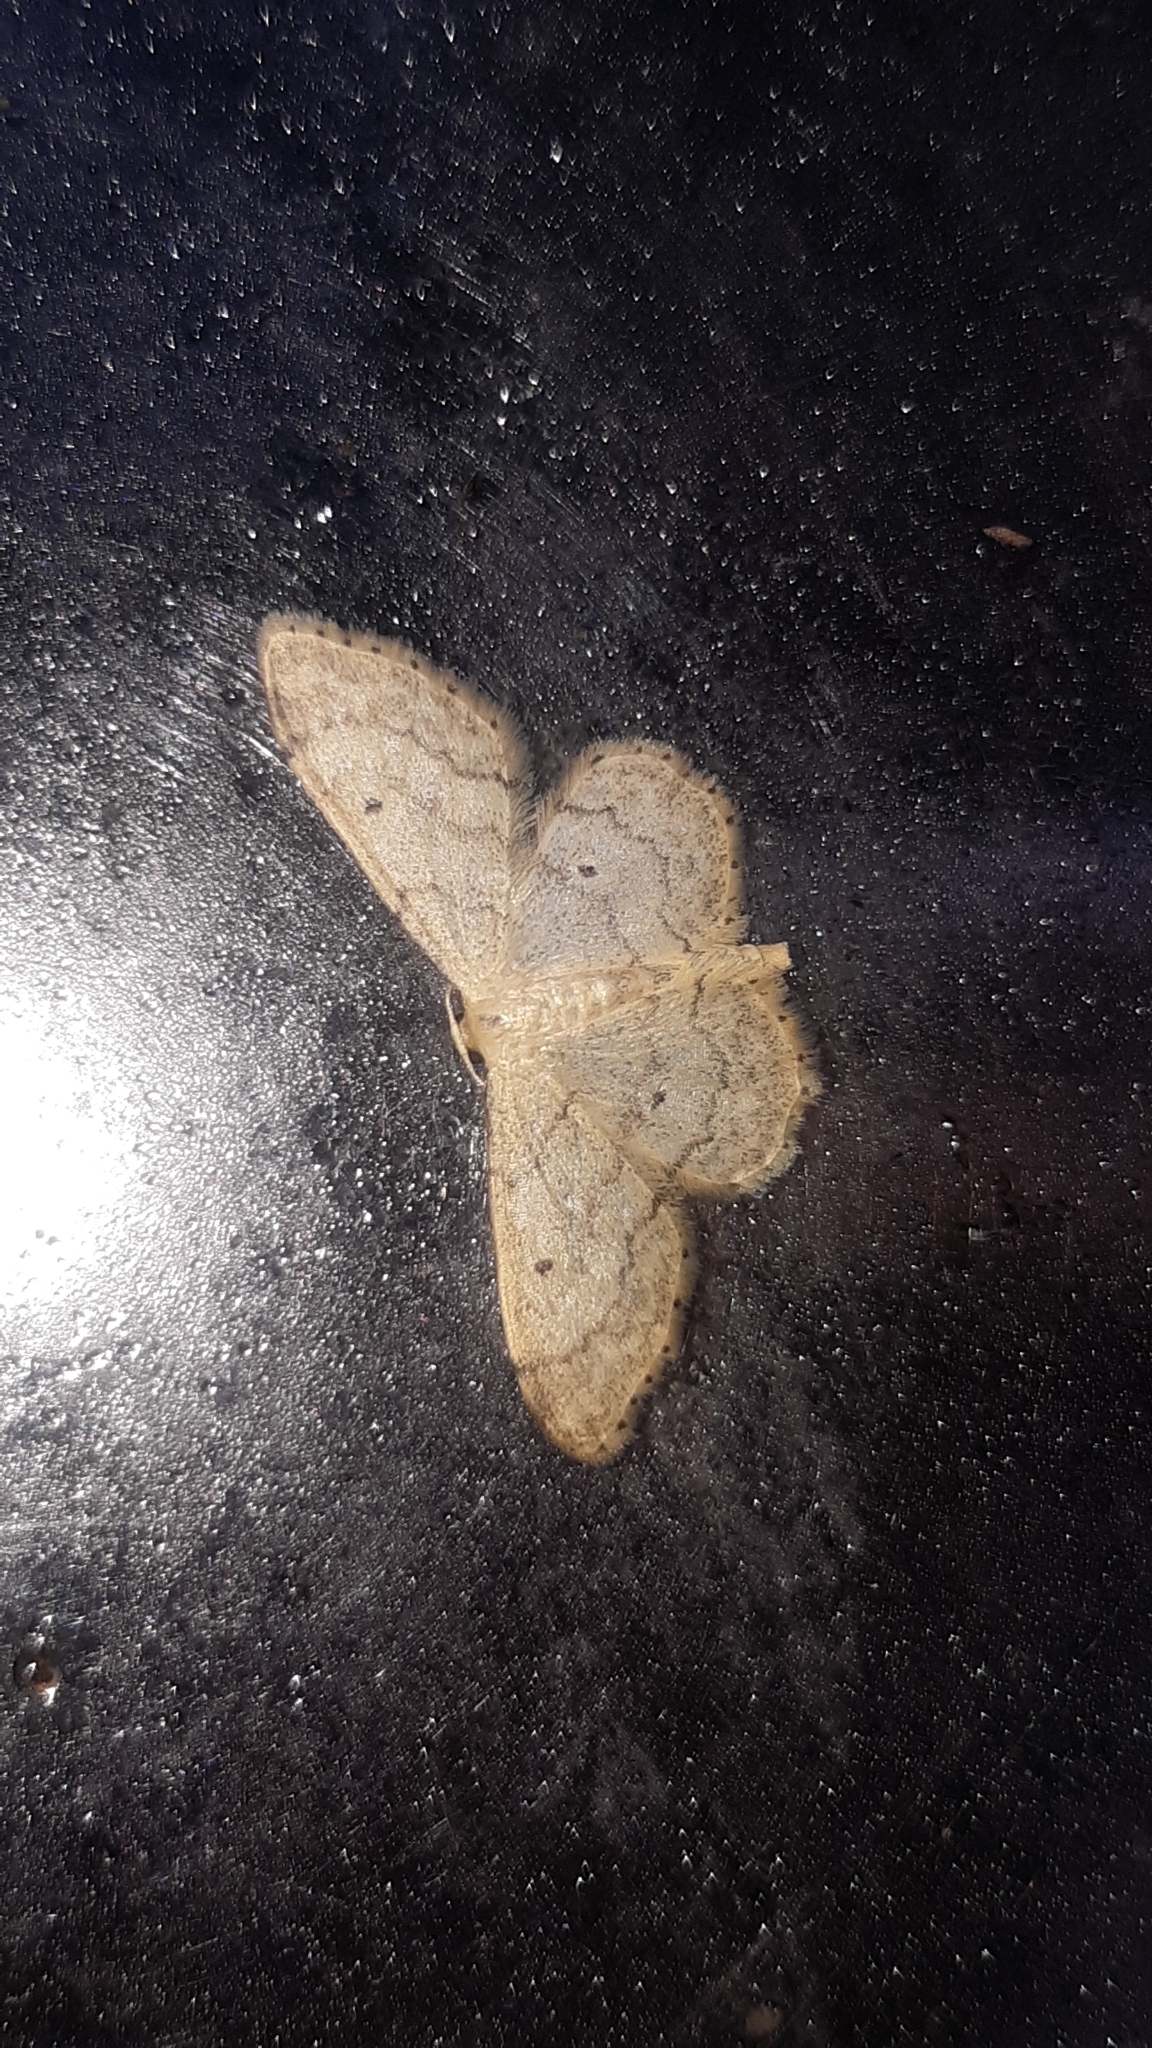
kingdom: Animalia
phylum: Arthropoda
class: Insecta
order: Lepidoptera
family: Geometridae
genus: Idaea
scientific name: Idaea biselata
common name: Small fan-footed wave
